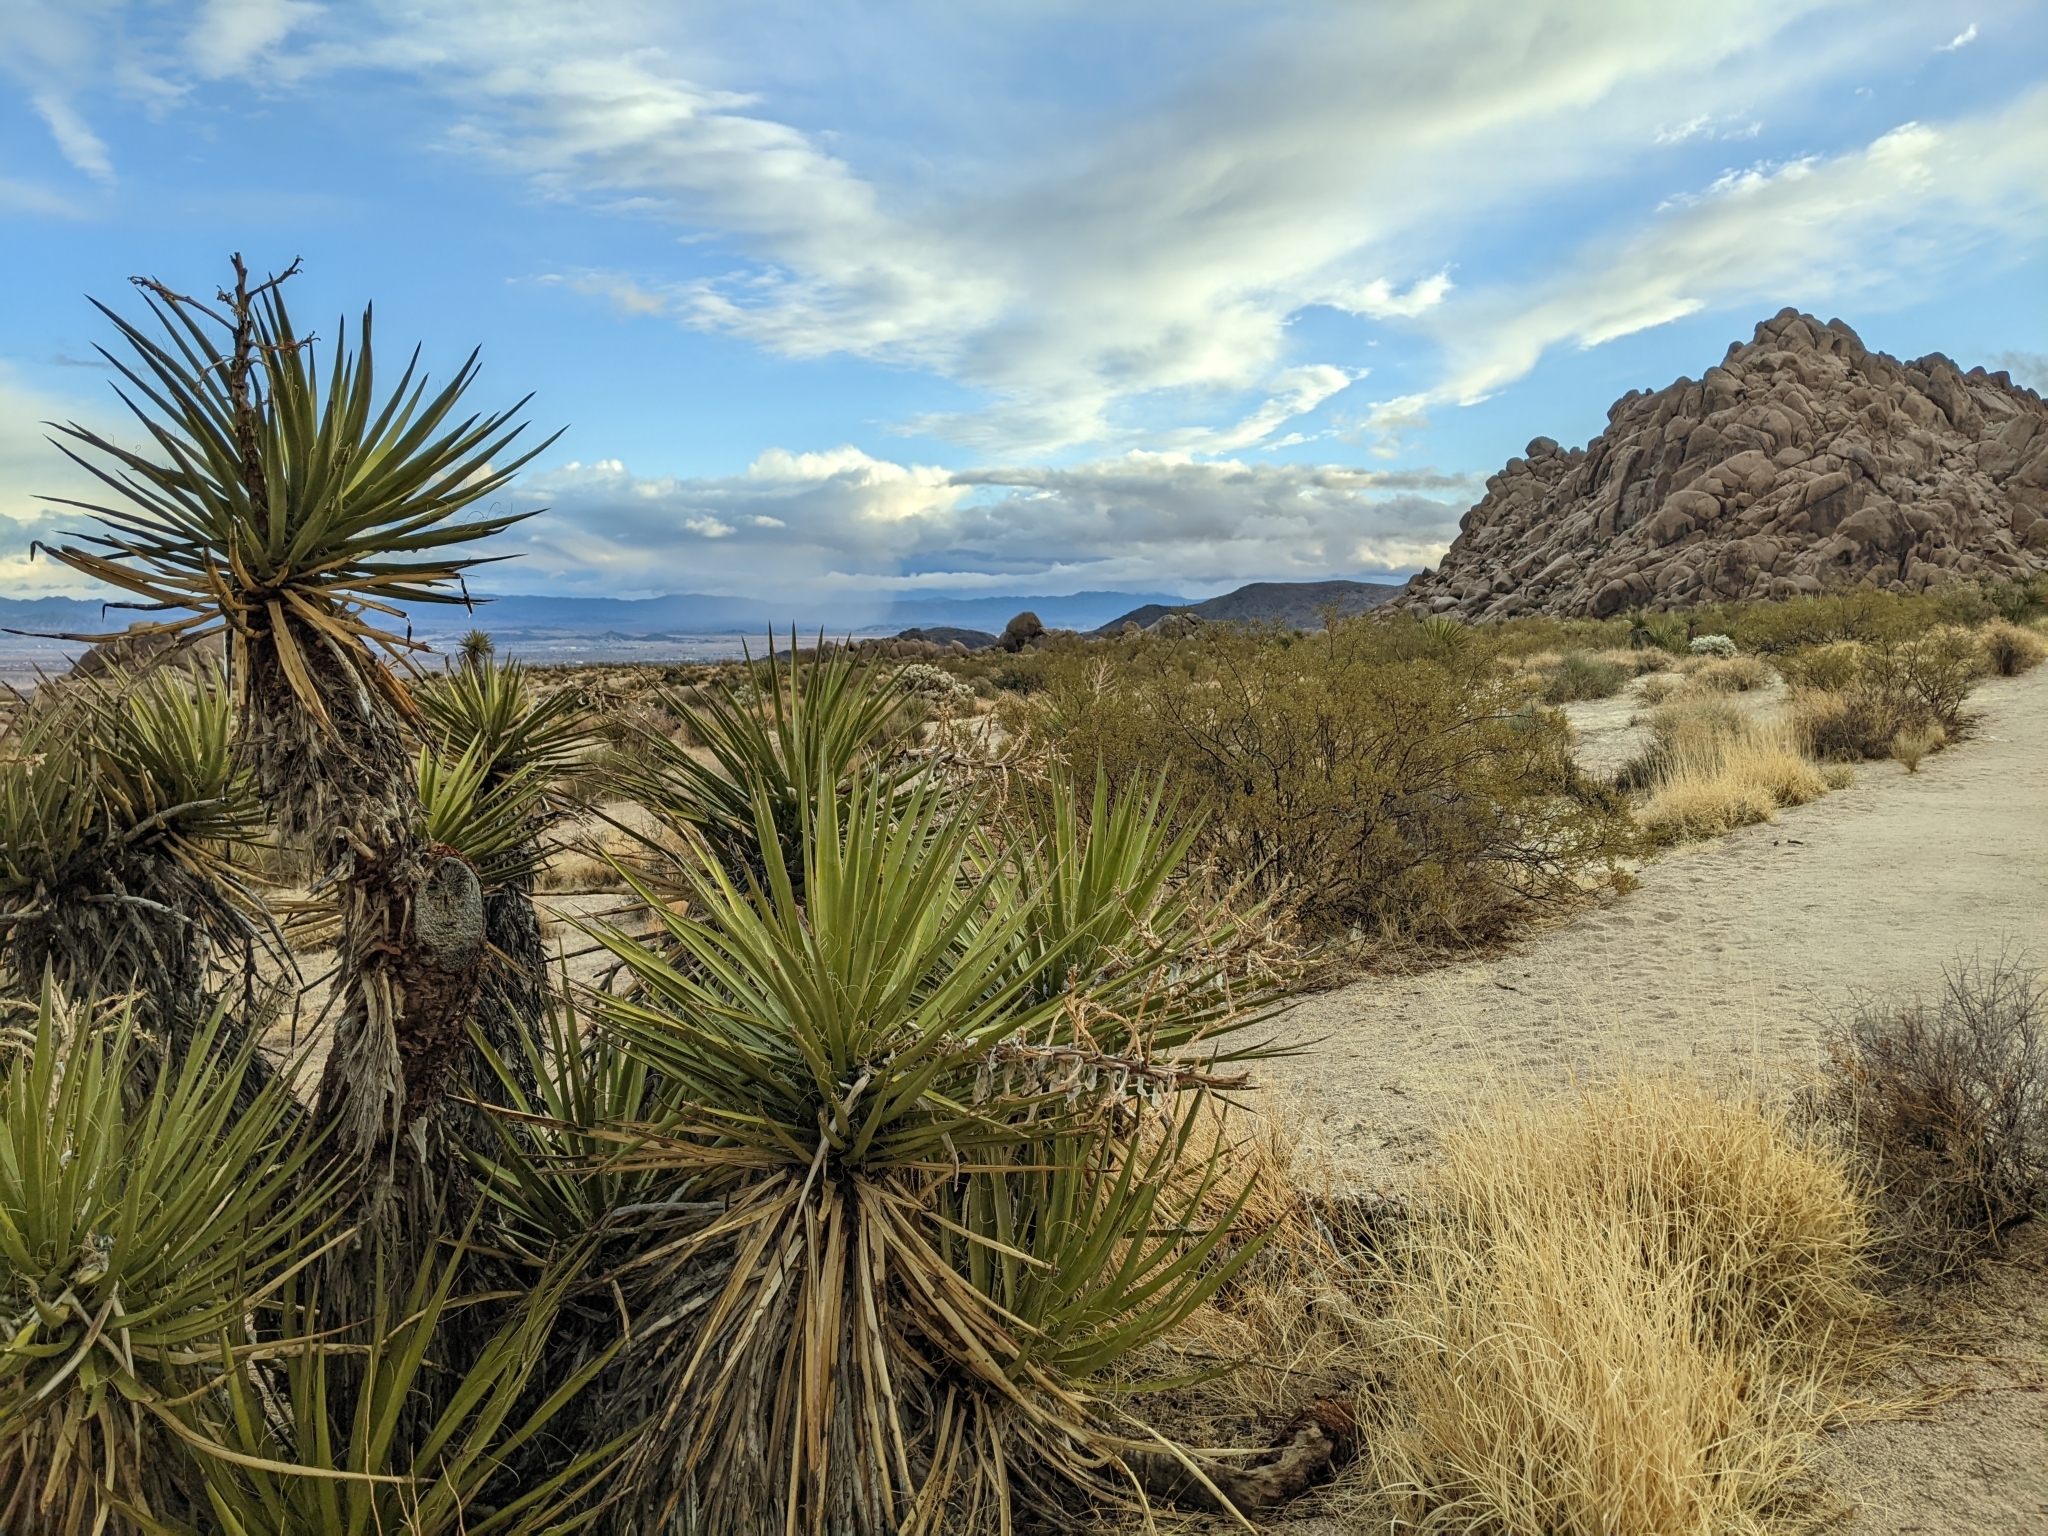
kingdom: Plantae
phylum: Tracheophyta
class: Liliopsida
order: Asparagales
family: Asparagaceae
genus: Yucca
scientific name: Yucca schidigera
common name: Mojave yucca
